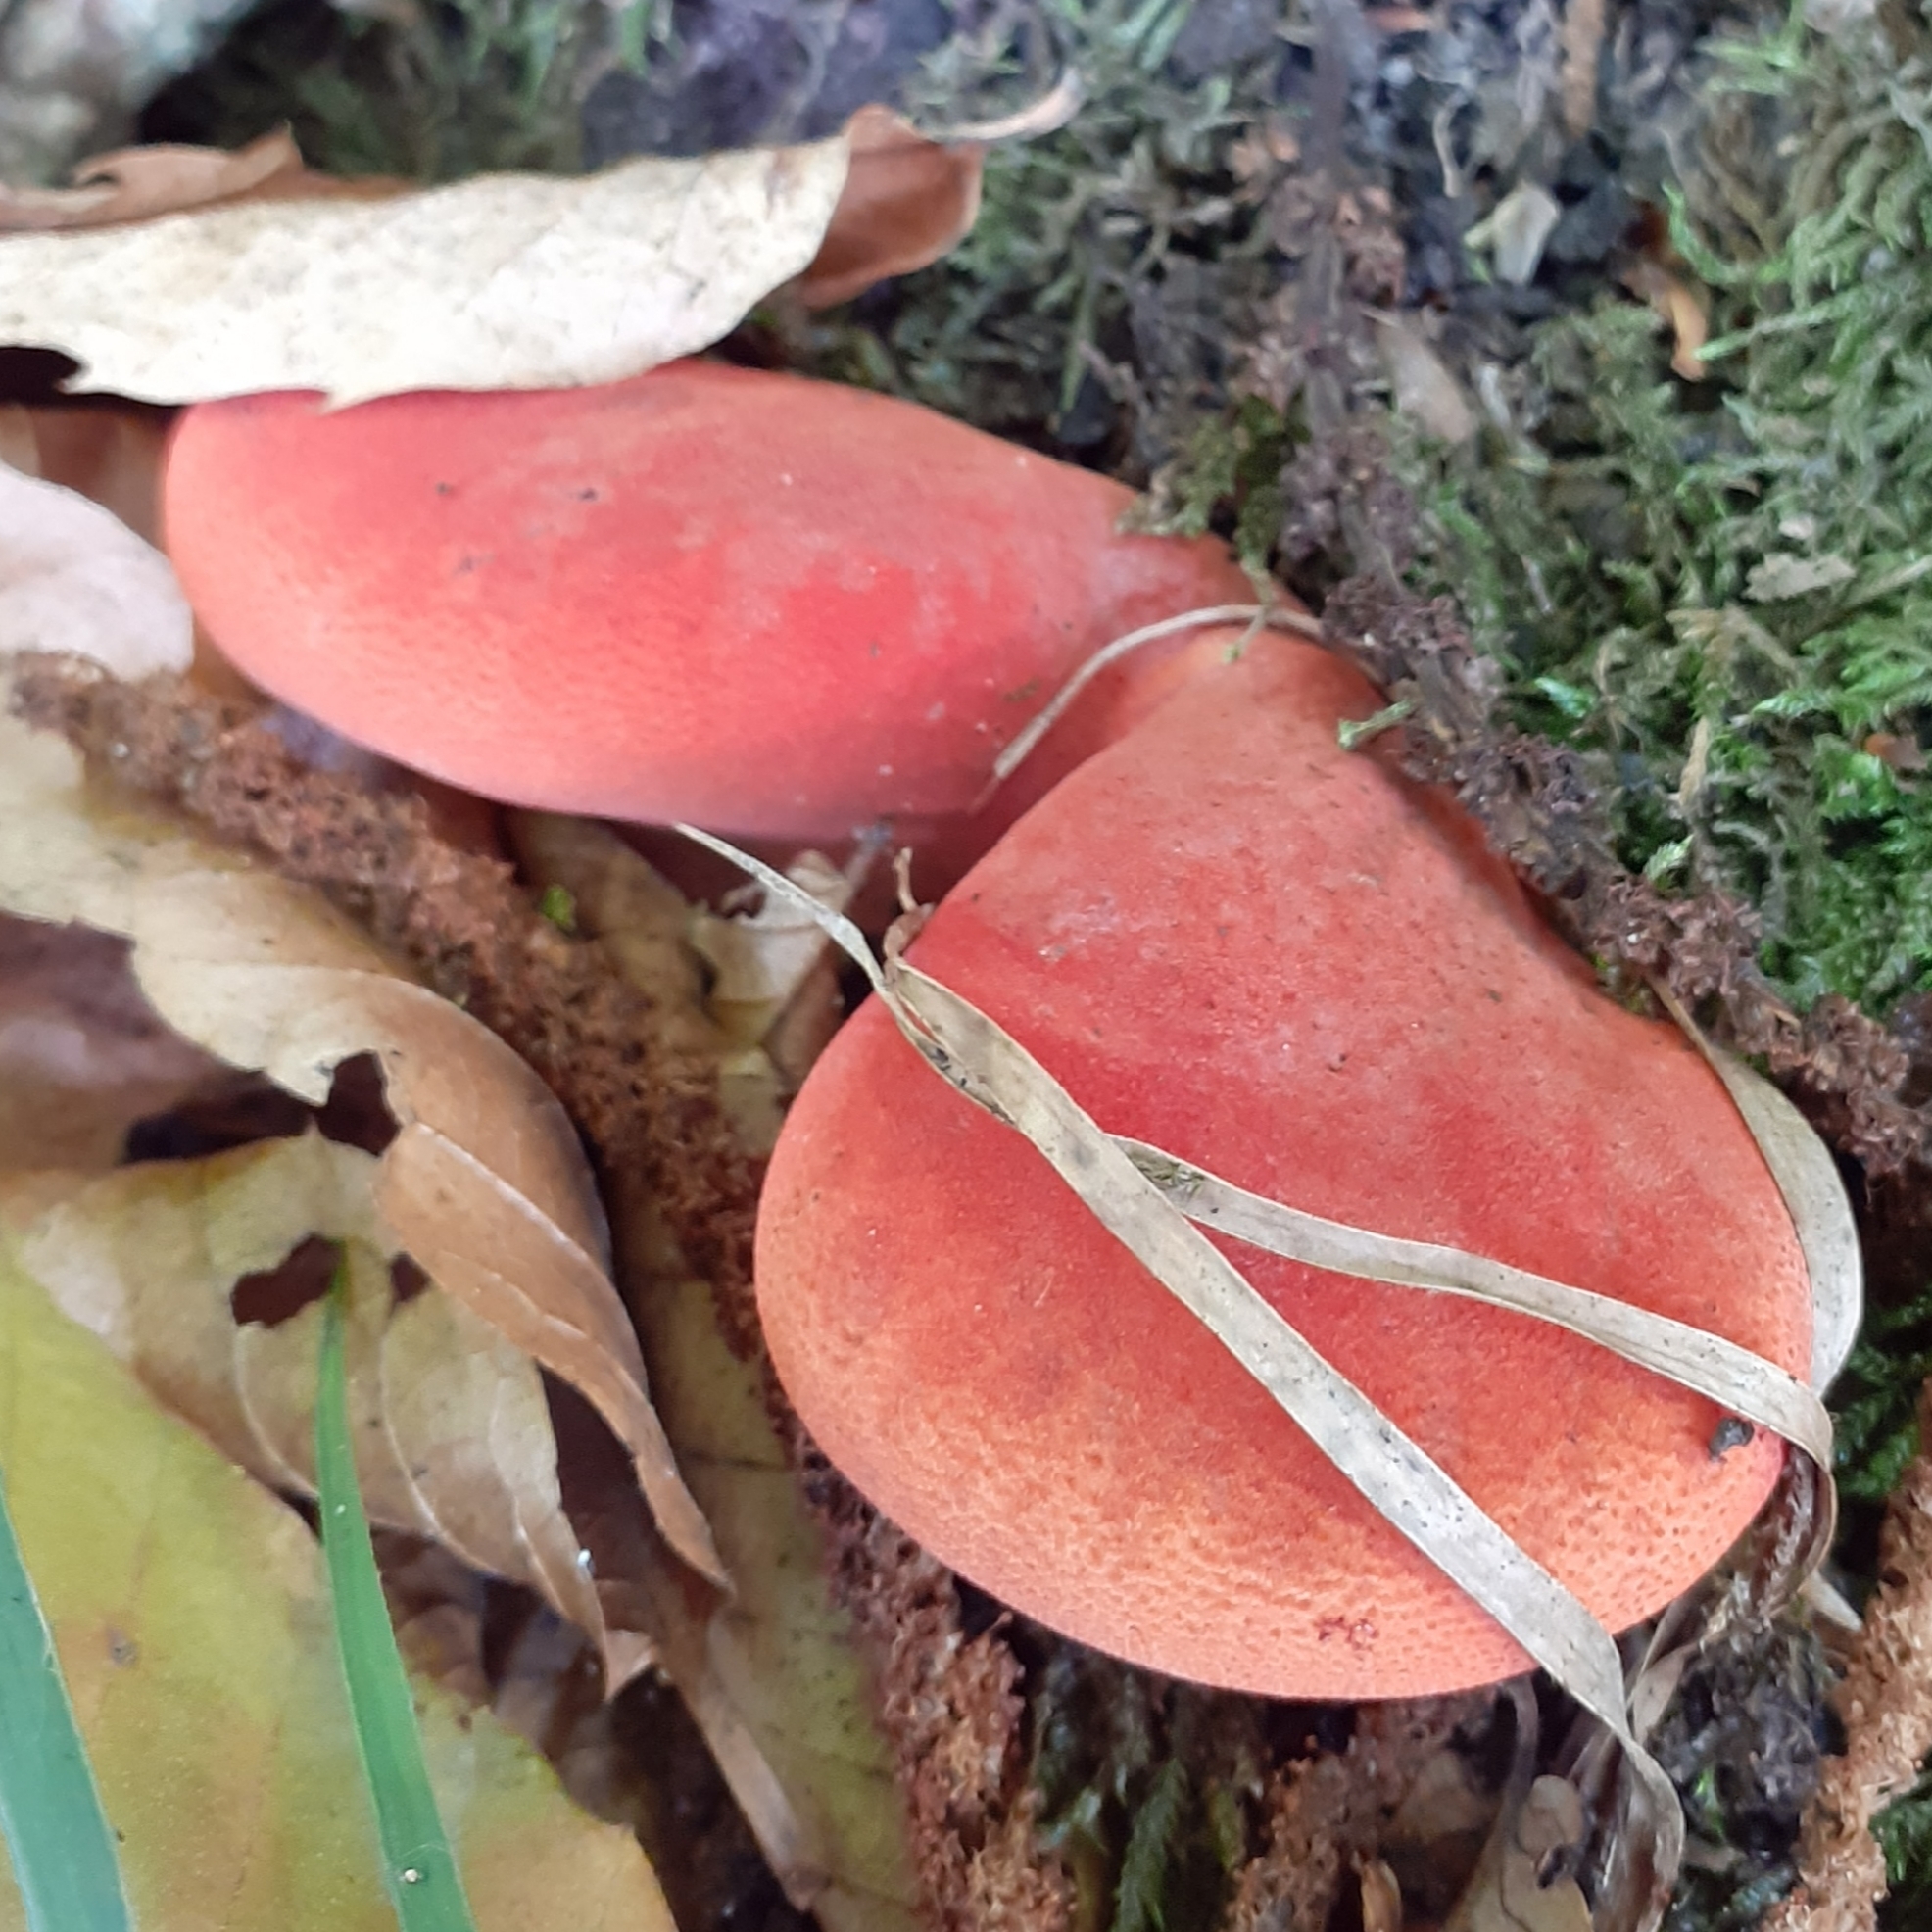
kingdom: Fungi
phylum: Basidiomycota
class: Agaricomycetes
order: Agaricales
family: Fistulinaceae
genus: Fistulina
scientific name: Fistulina hepatica
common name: Beef-steak fungus
